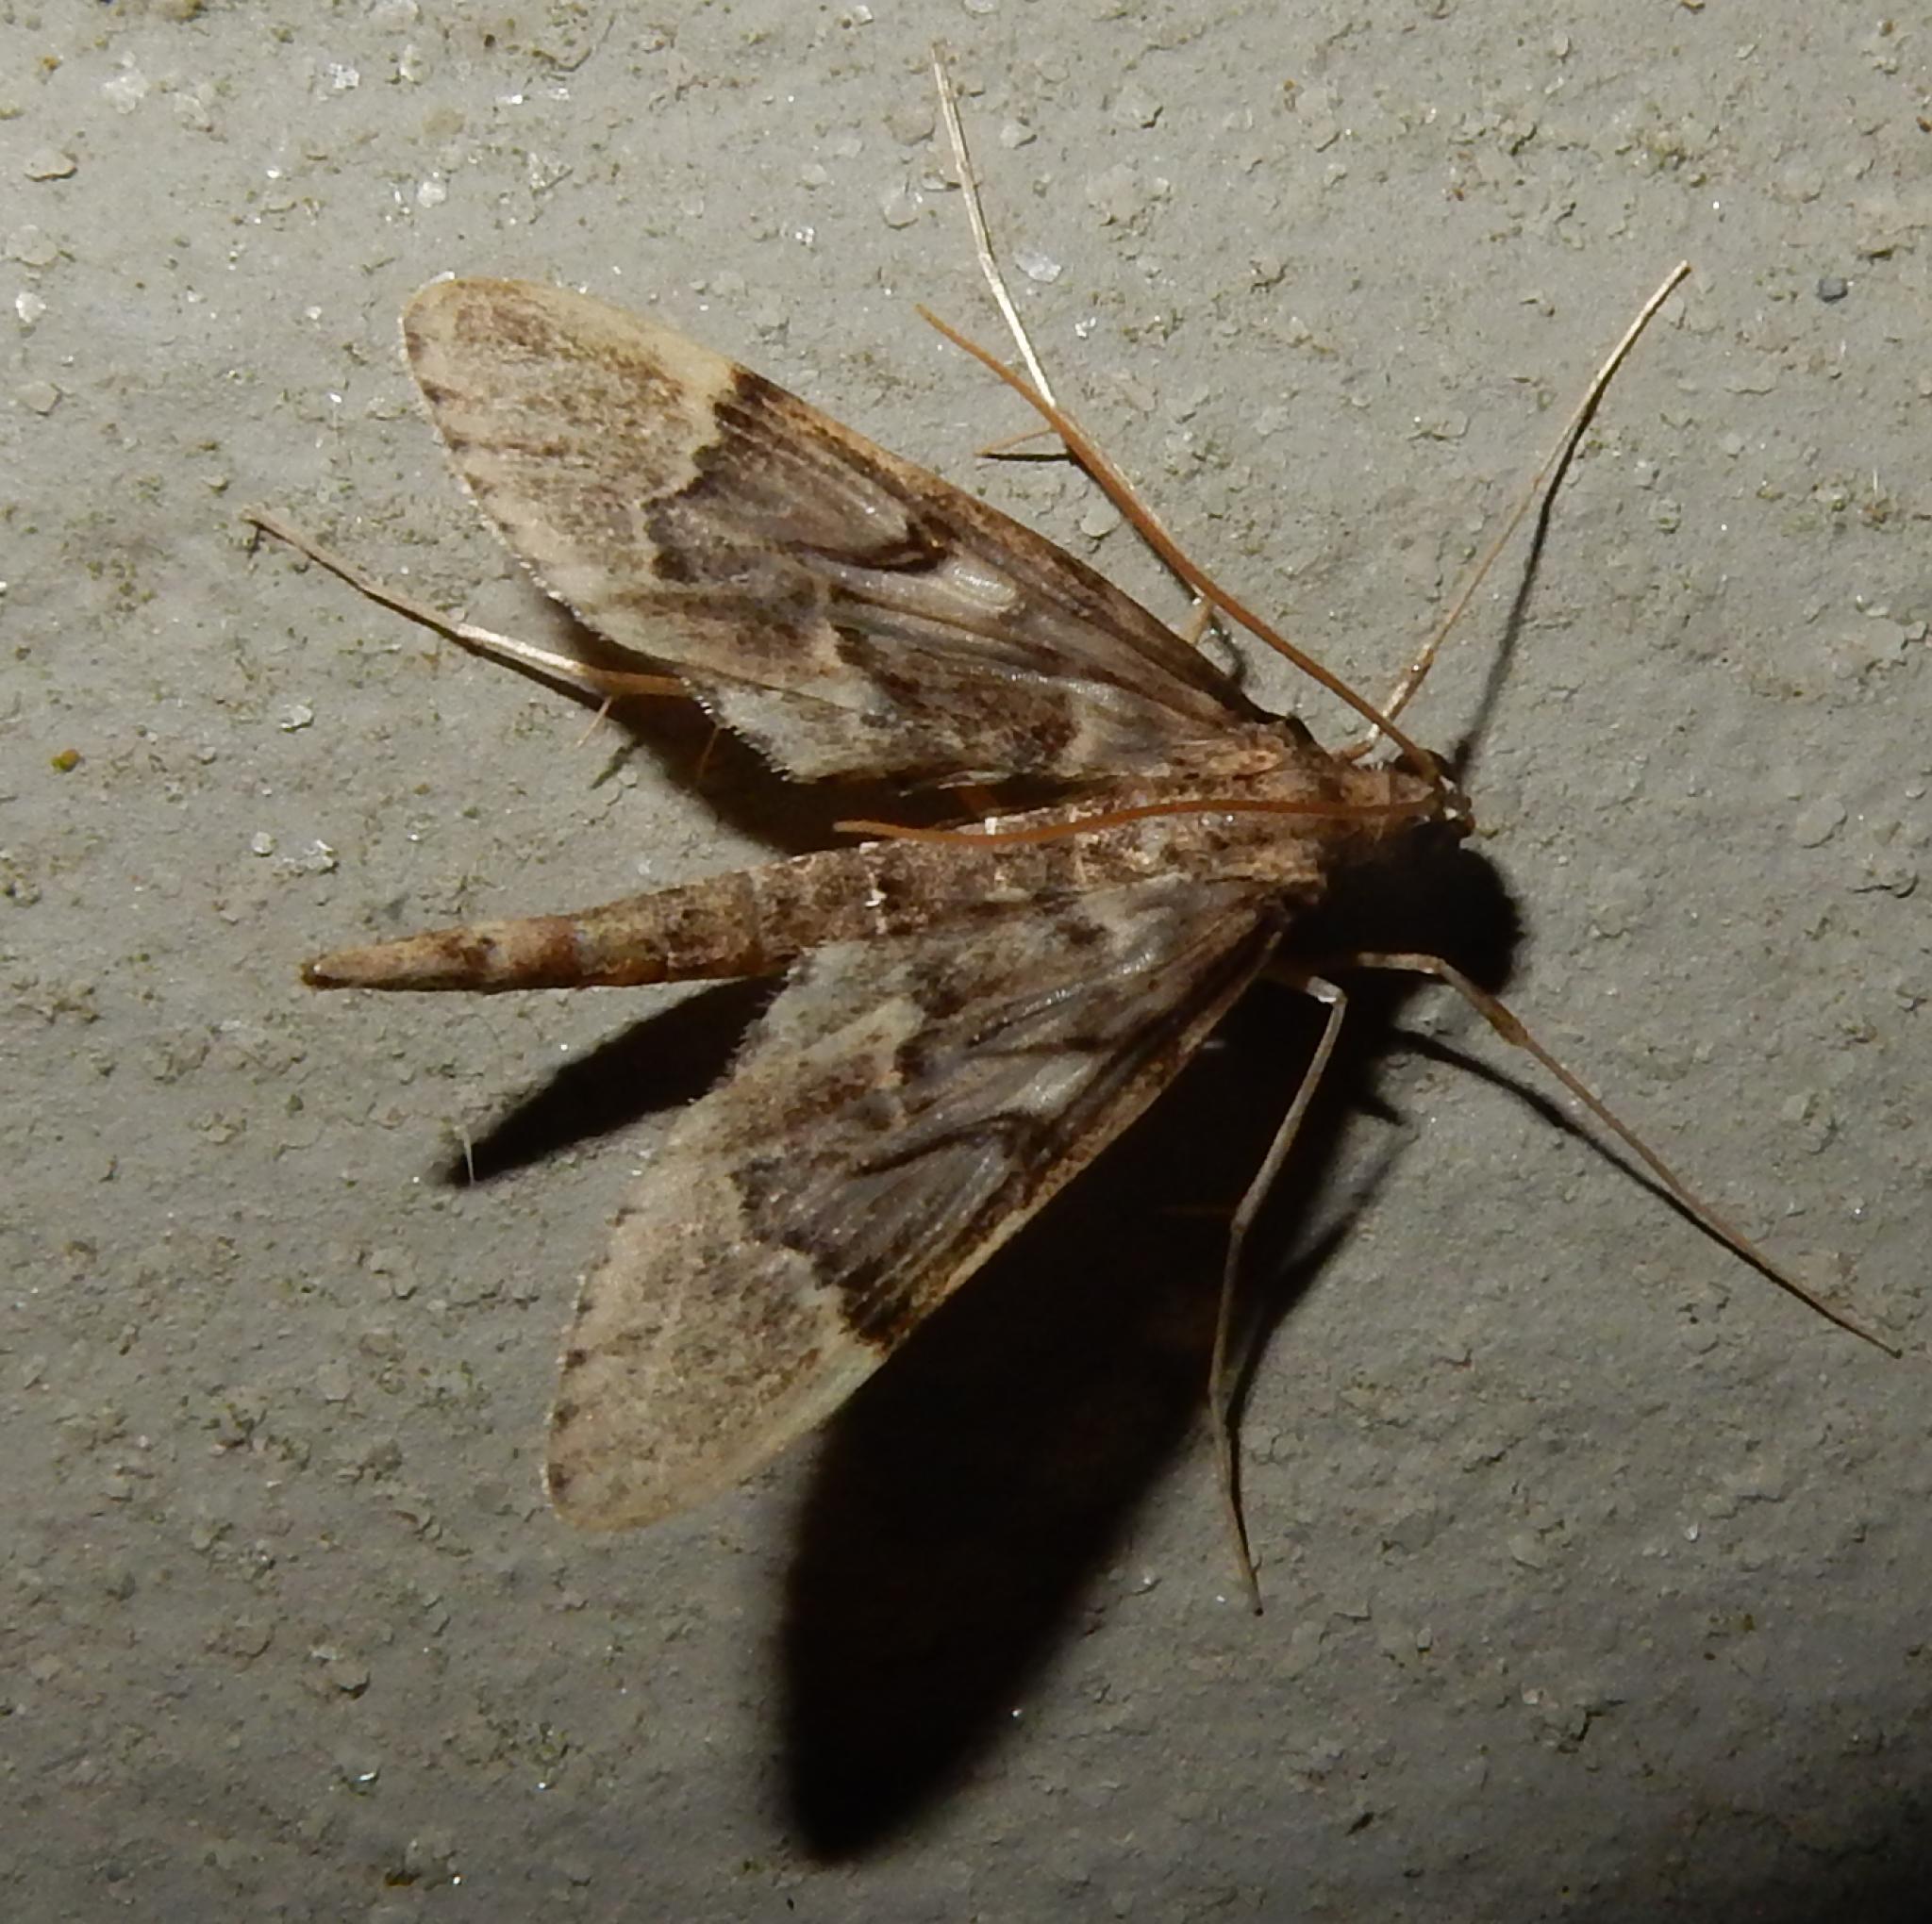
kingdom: Animalia
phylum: Arthropoda
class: Insecta
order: Lepidoptera
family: Crambidae
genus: Duponchelia
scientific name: Duponchelia lanceolalis
